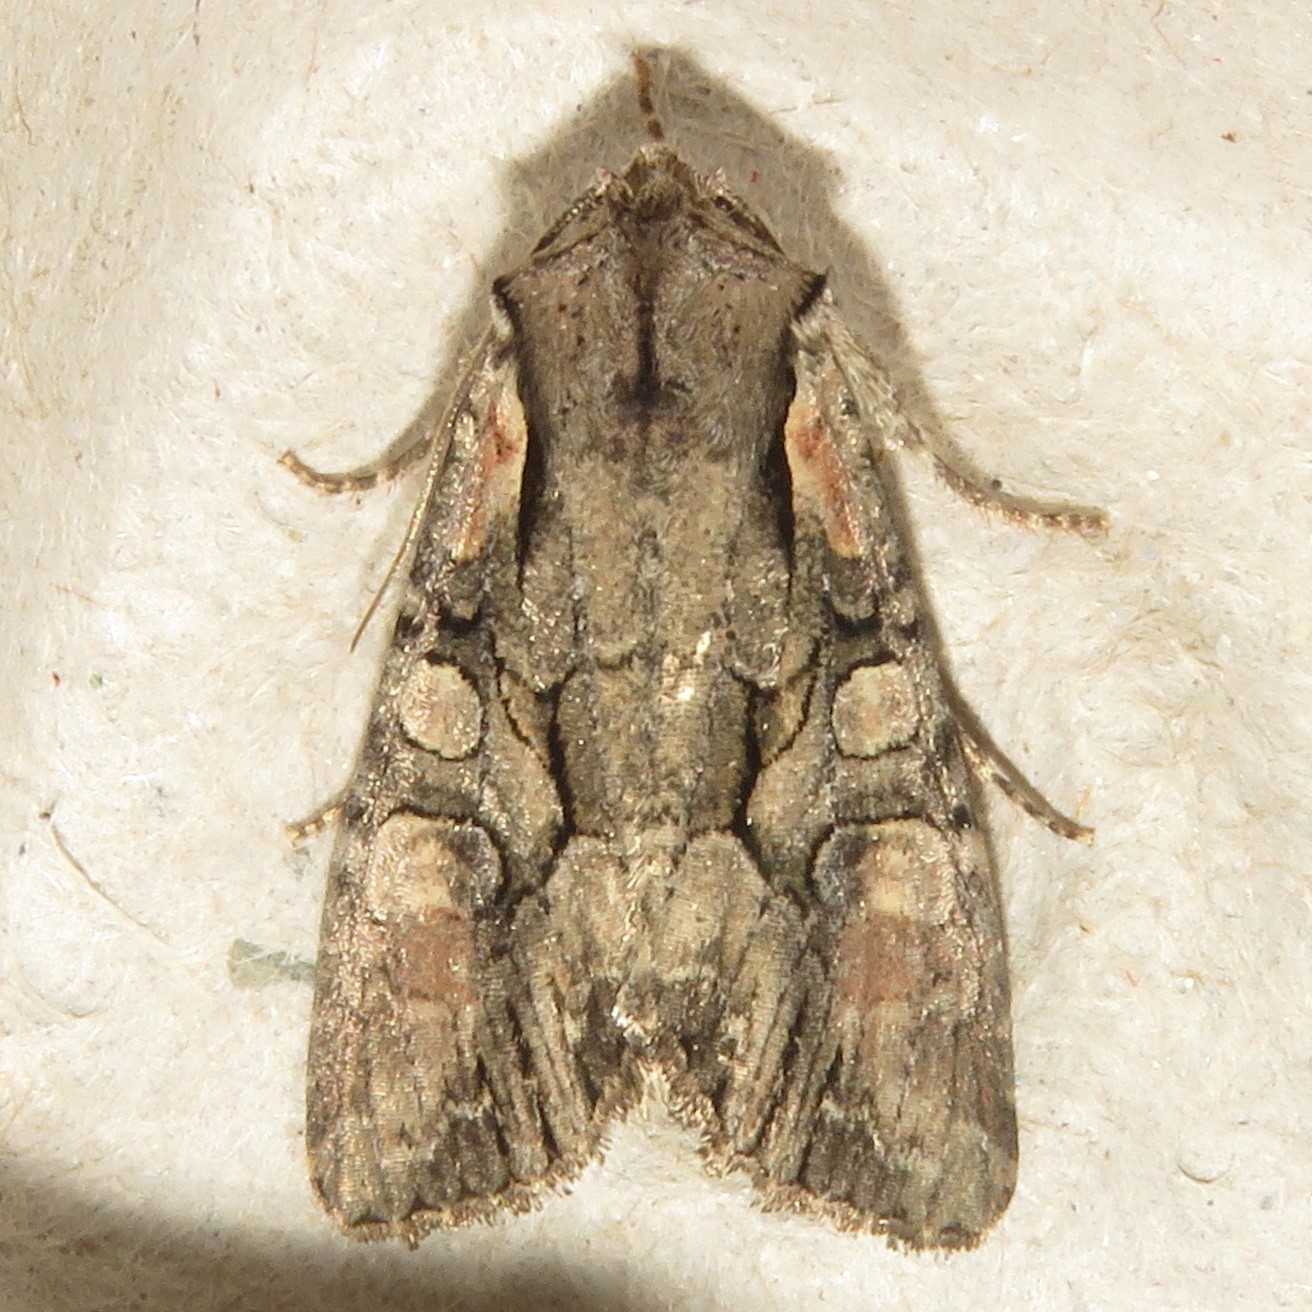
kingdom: Animalia
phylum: Arthropoda
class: Insecta
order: Lepidoptera
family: Noctuidae
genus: Lacanobia
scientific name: Lacanobia subjuncta
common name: Speckled cutworm moth
